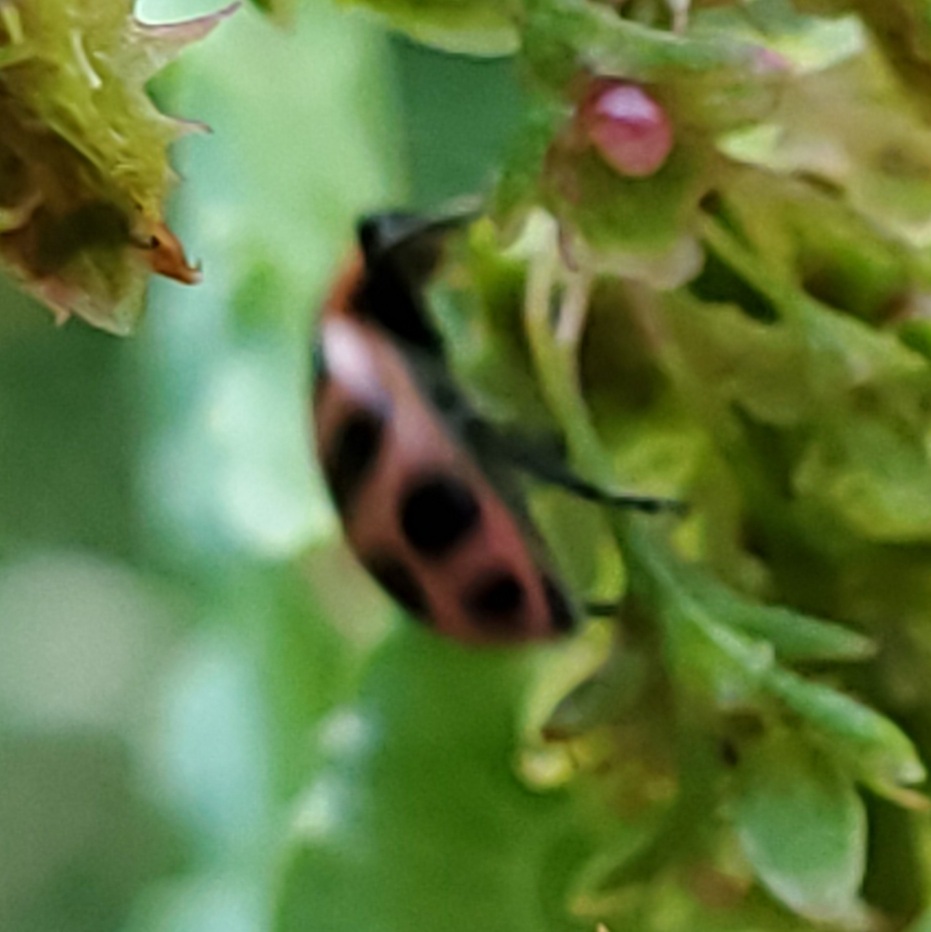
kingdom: Animalia
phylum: Arthropoda
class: Insecta
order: Coleoptera
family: Coccinellidae
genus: Coleomegilla
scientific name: Coleomegilla maculata
